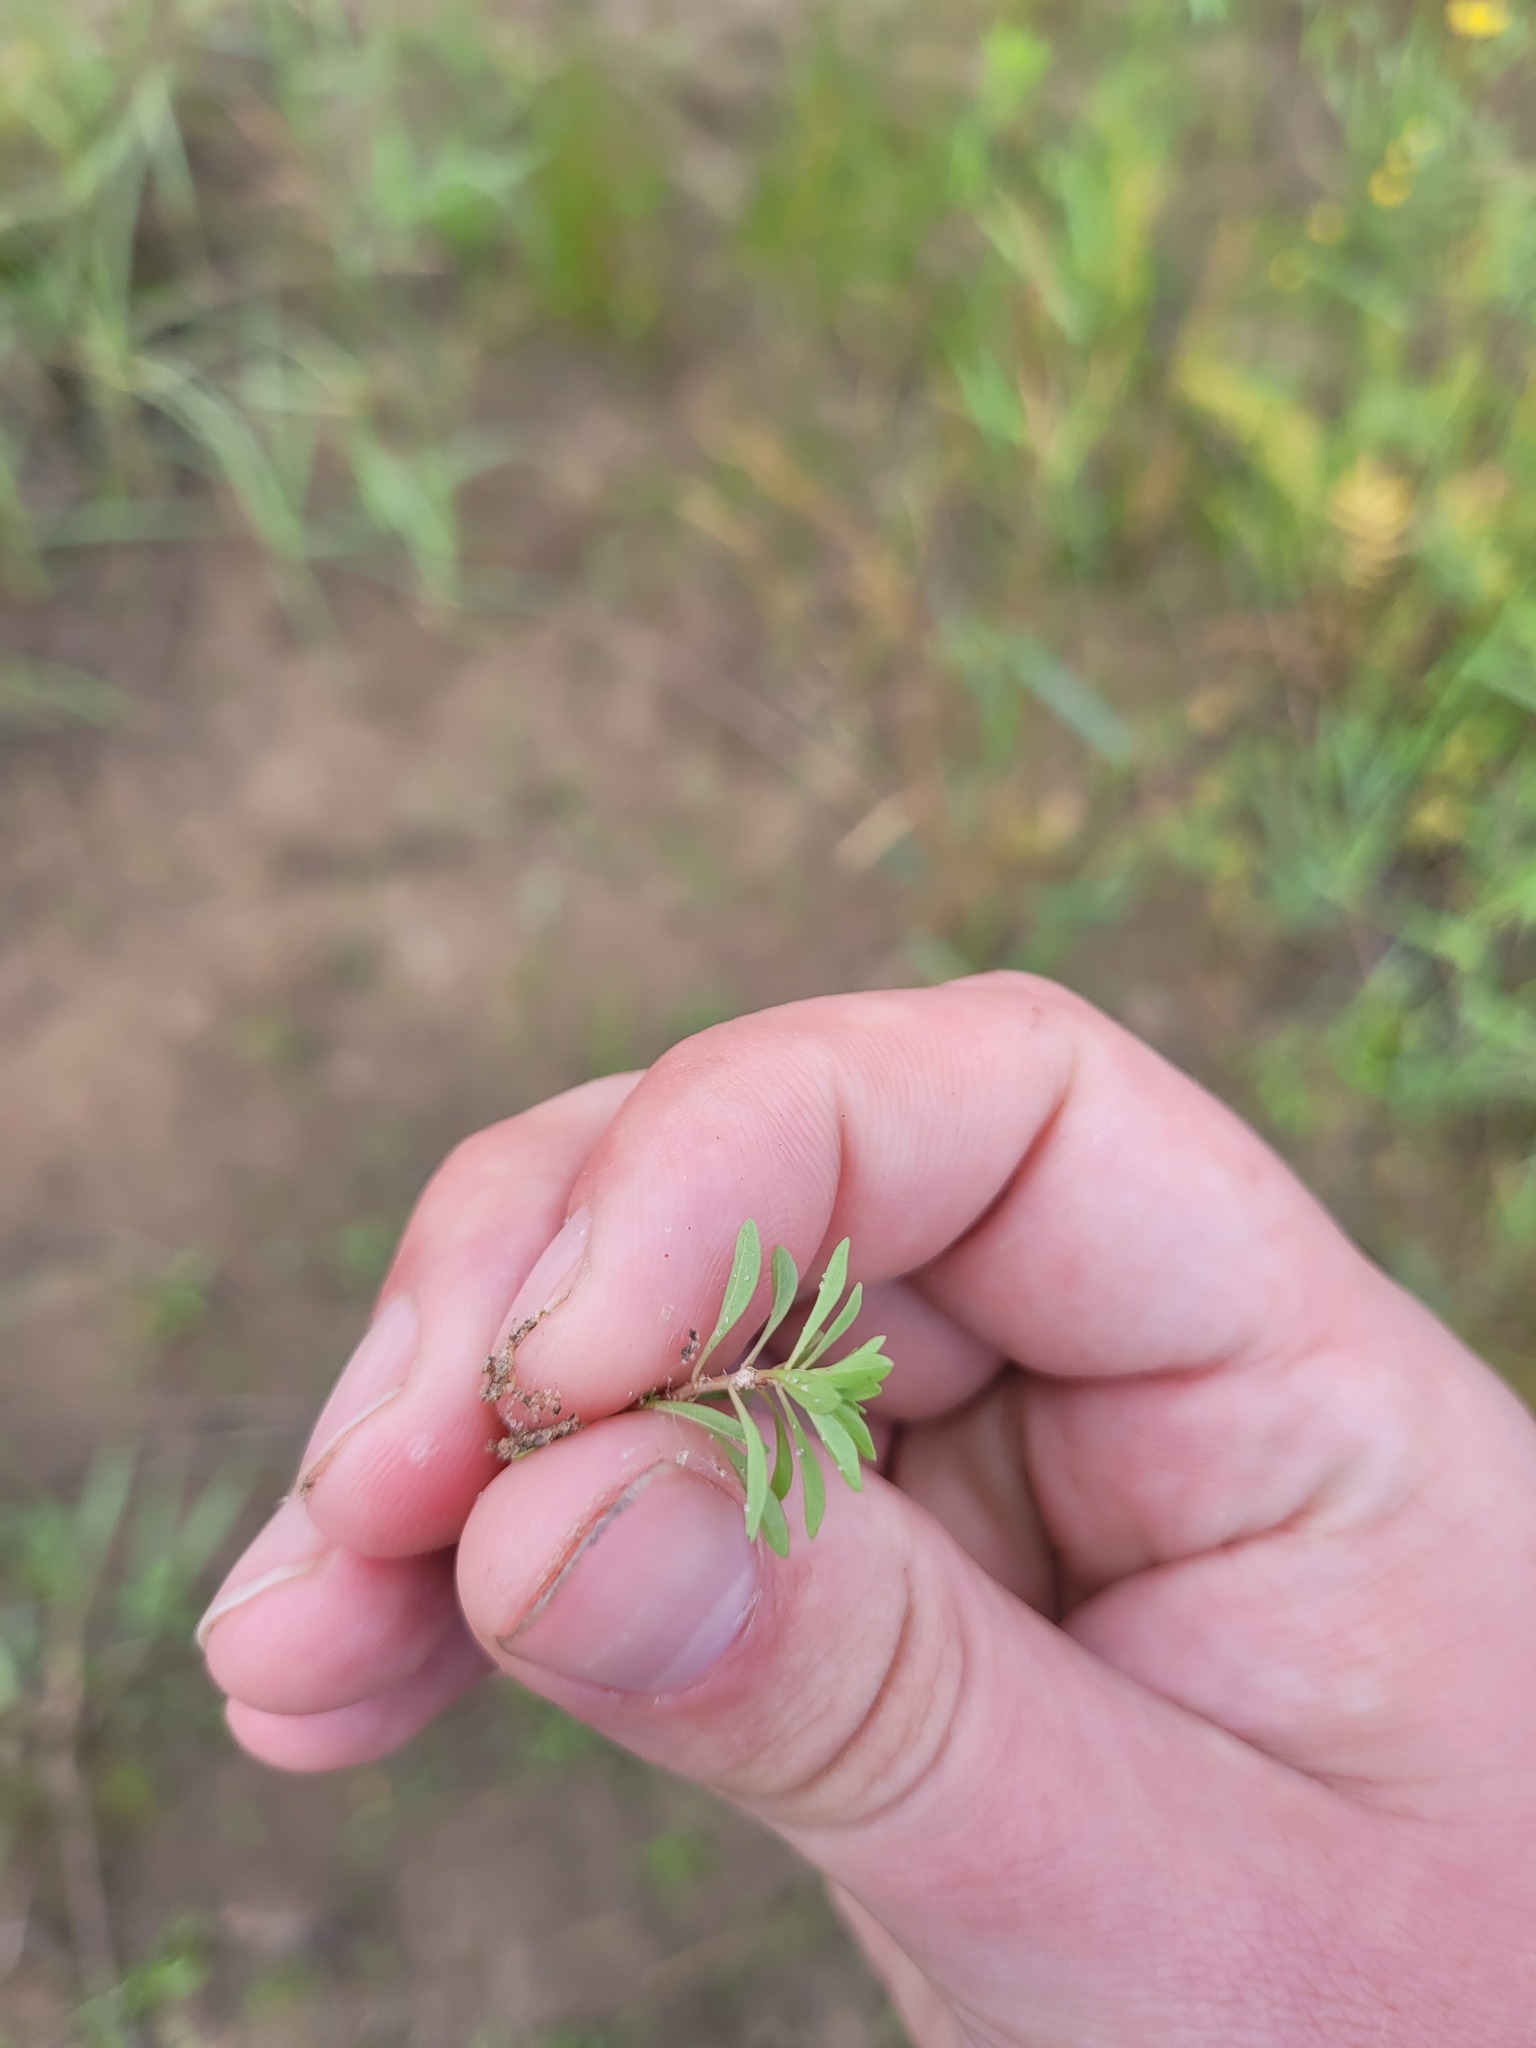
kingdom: Plantae
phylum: Tracheophyta
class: Magnoliopsida
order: Myrtales
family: Lythraceae
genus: Lythrum
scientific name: Lythrum volgense
